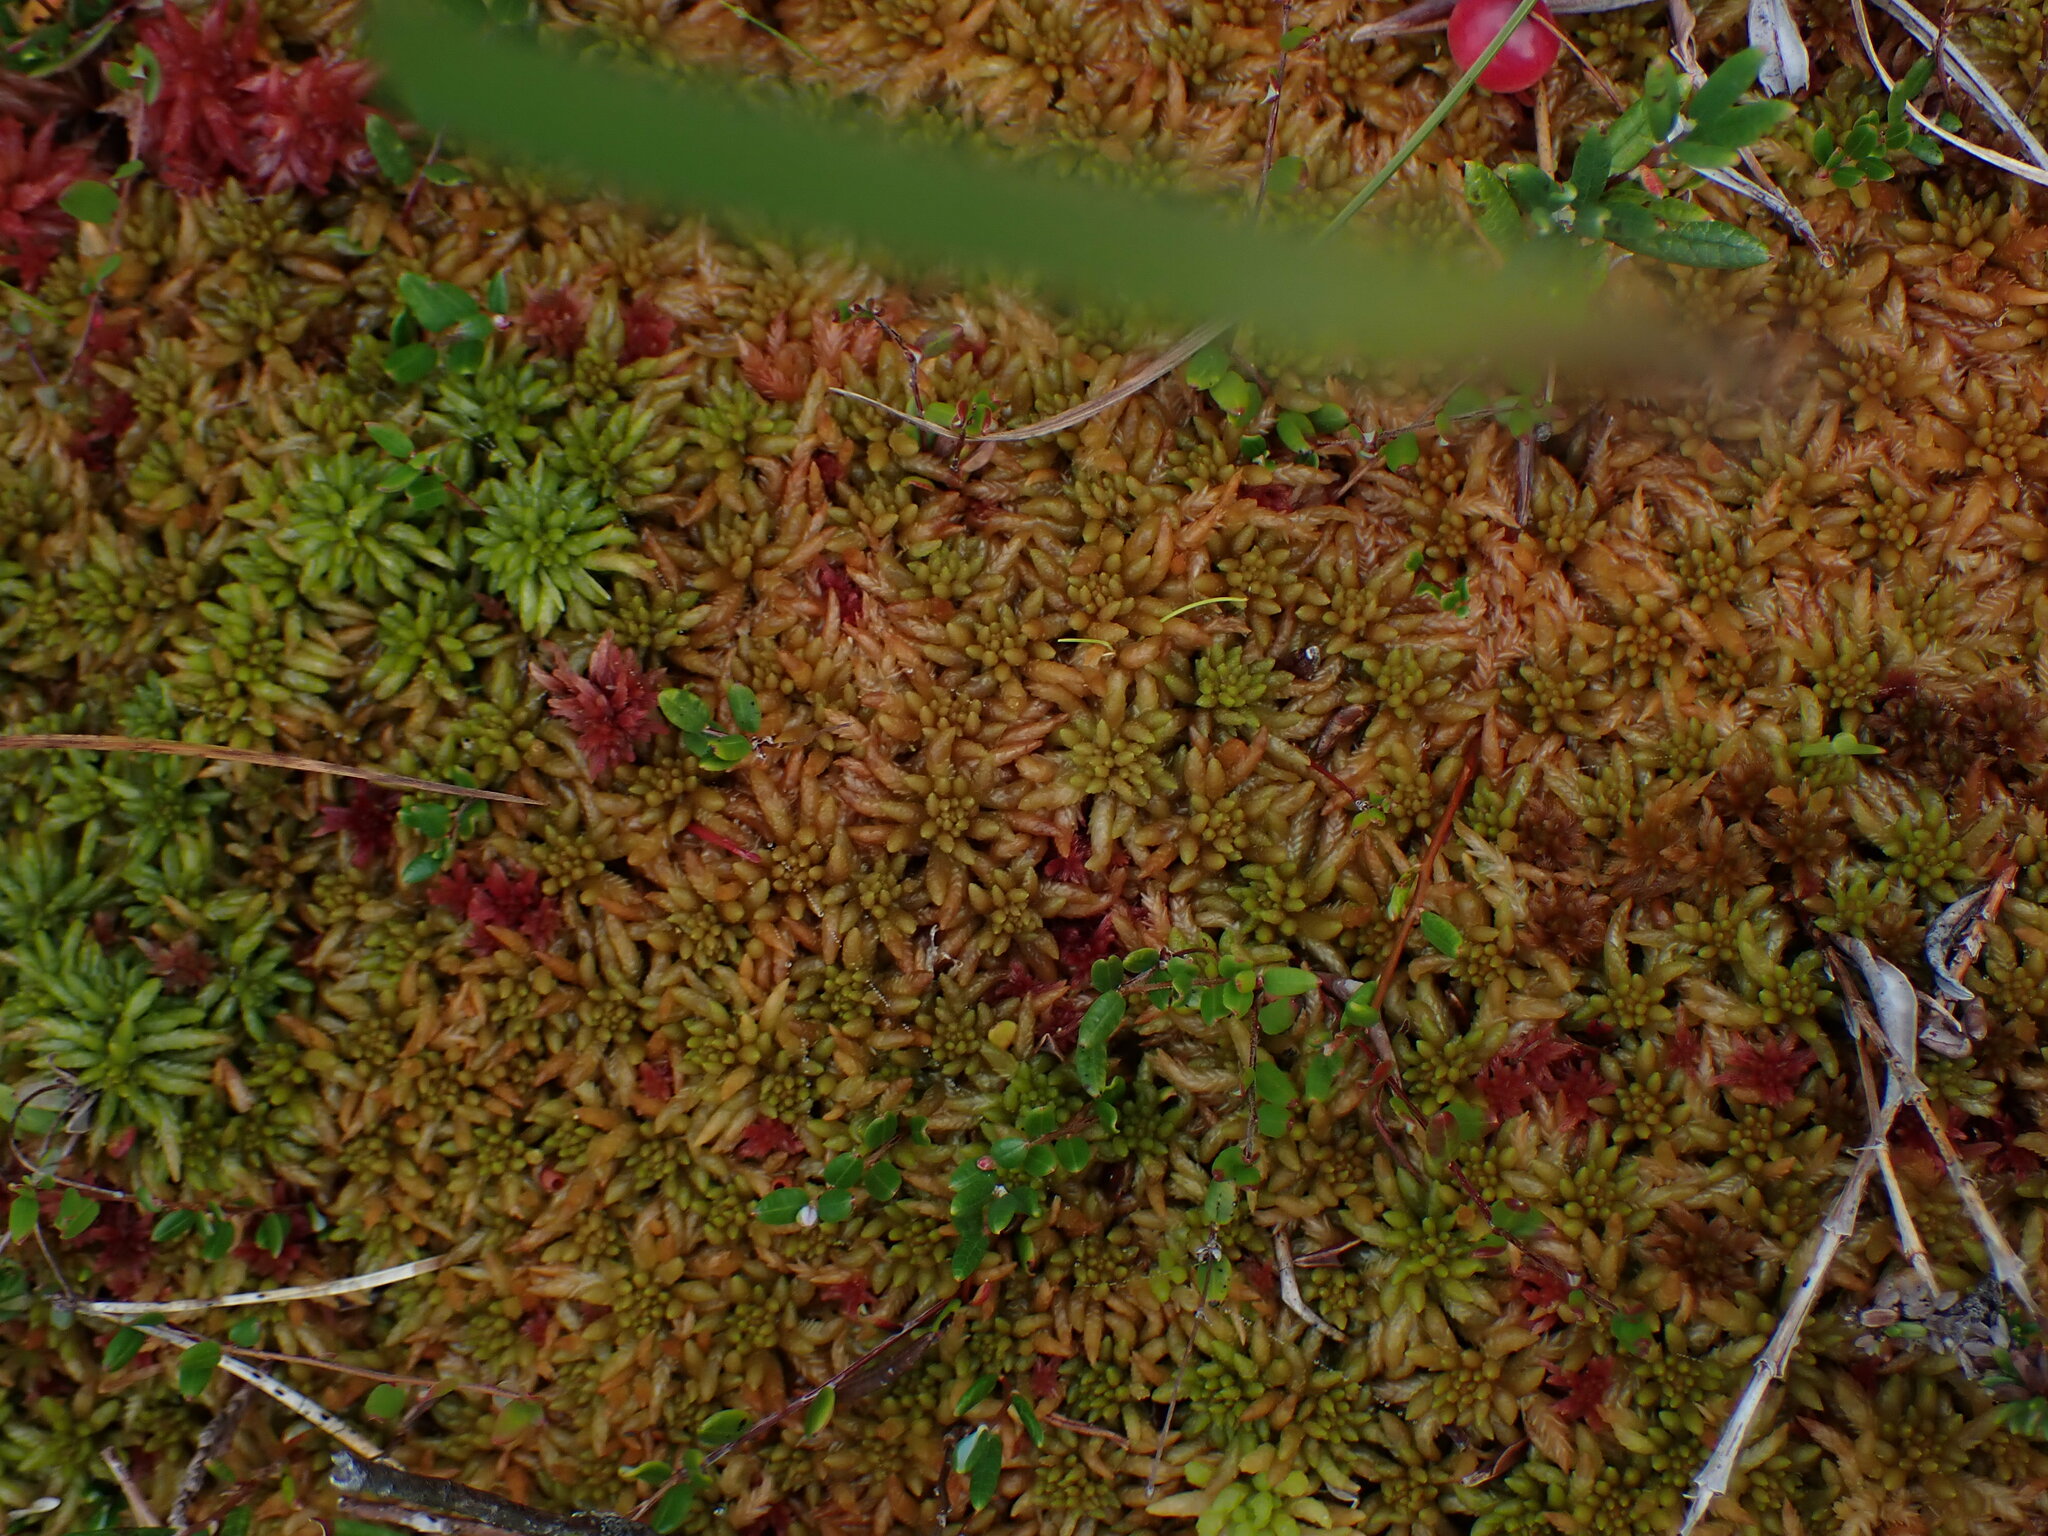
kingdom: Plantae
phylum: Bryophyta
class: Sphagnopsida
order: Sphagnales
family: Sphagnaceae
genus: Sphagnum
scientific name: Sphagnum austinii
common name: Austin's peat moss
